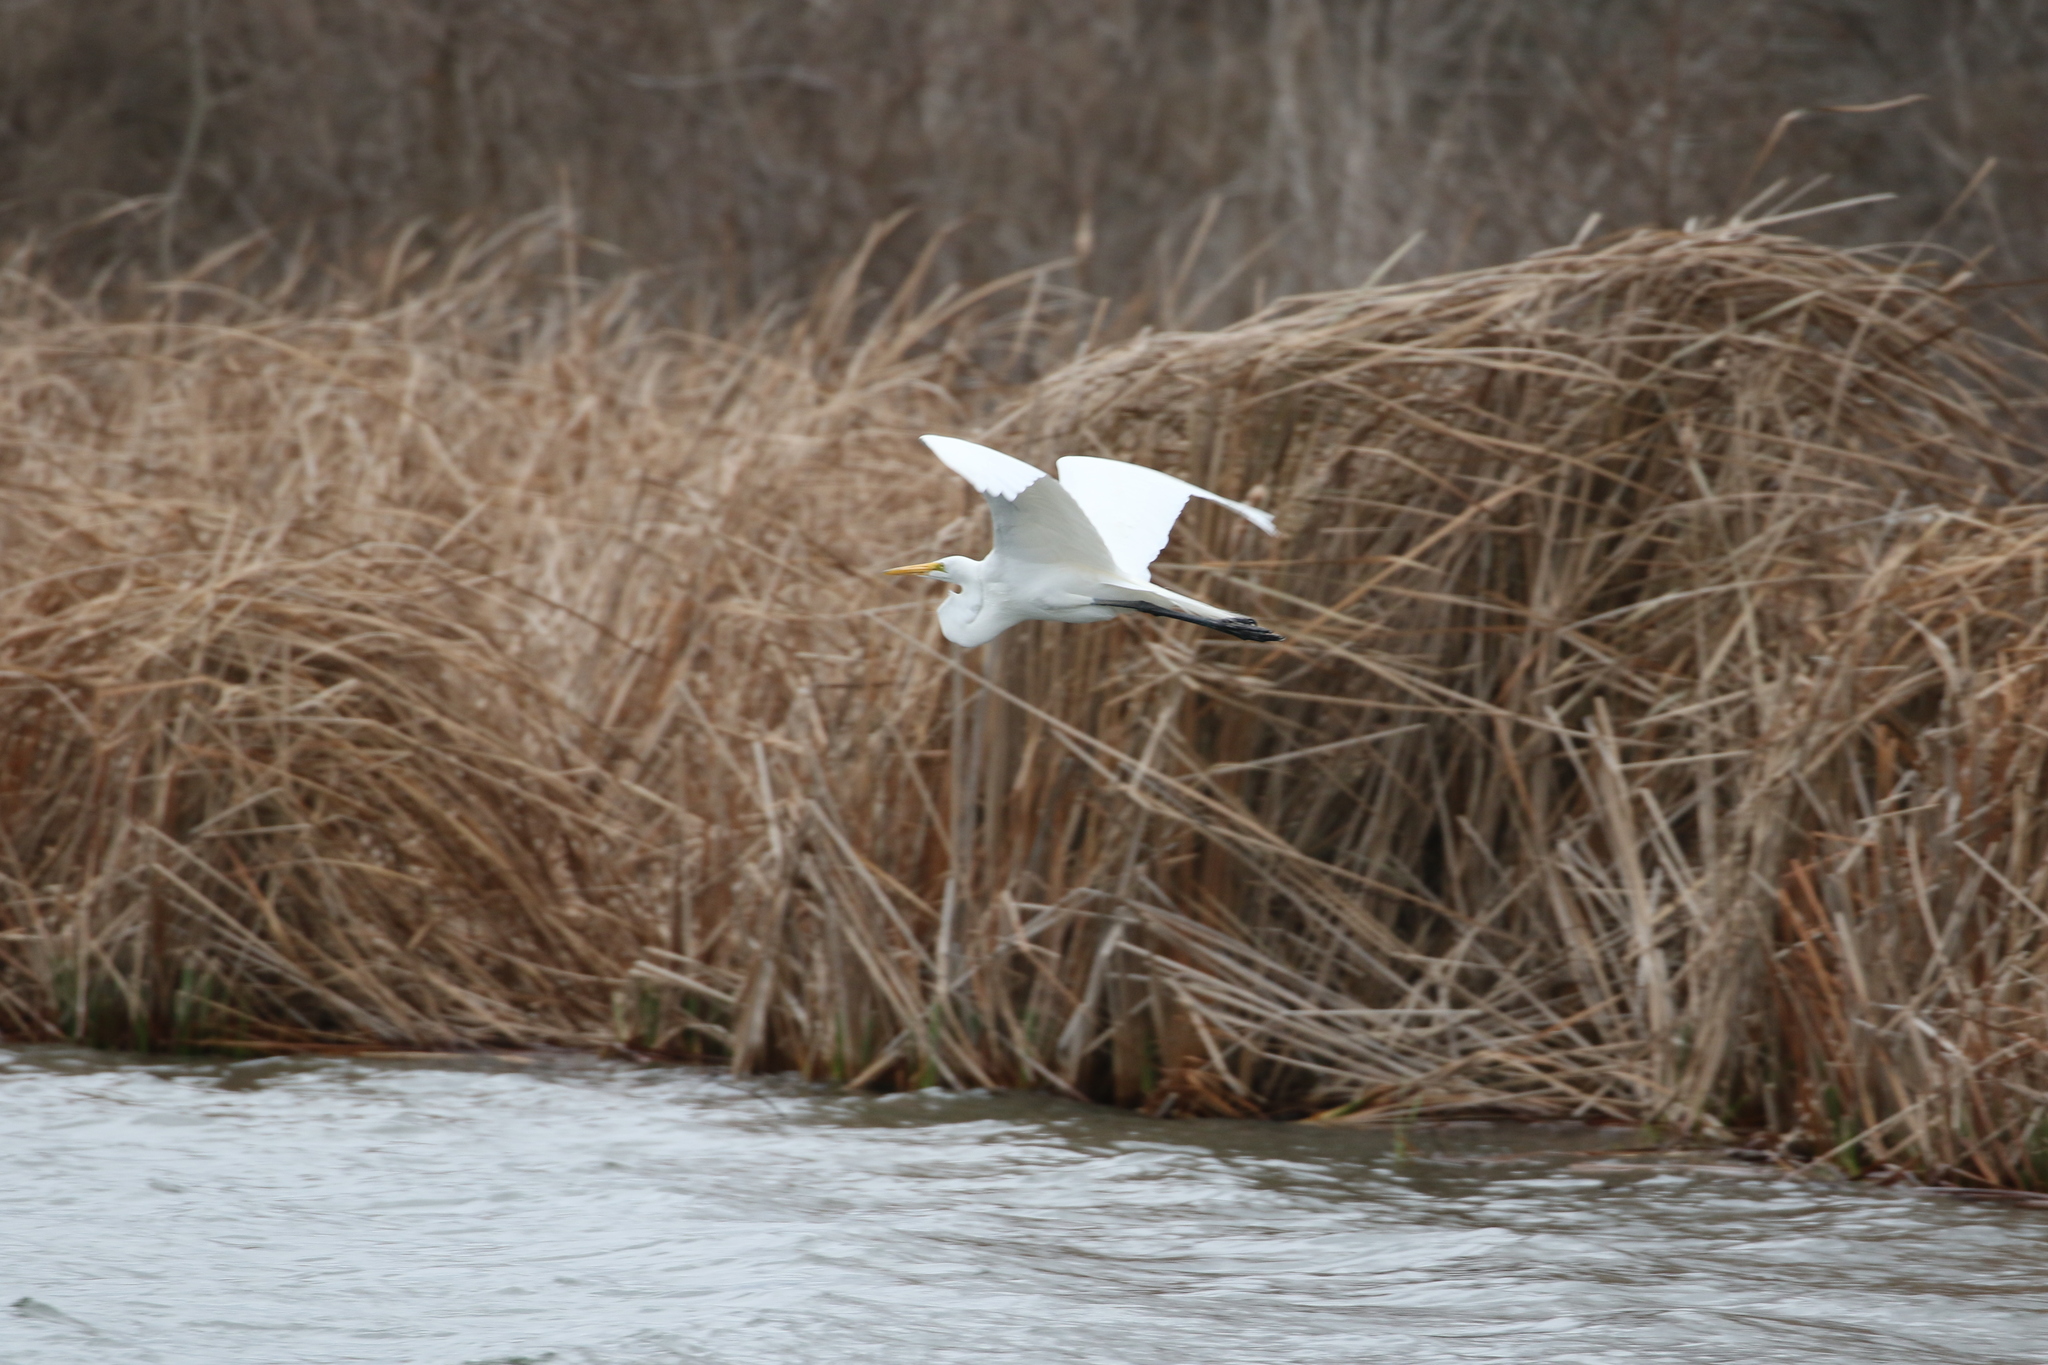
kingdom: Animalia
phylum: Chordata
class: Aves
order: Pelecaniformes
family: Ardeidae
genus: Ardea
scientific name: Ardea alba
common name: Great egret
